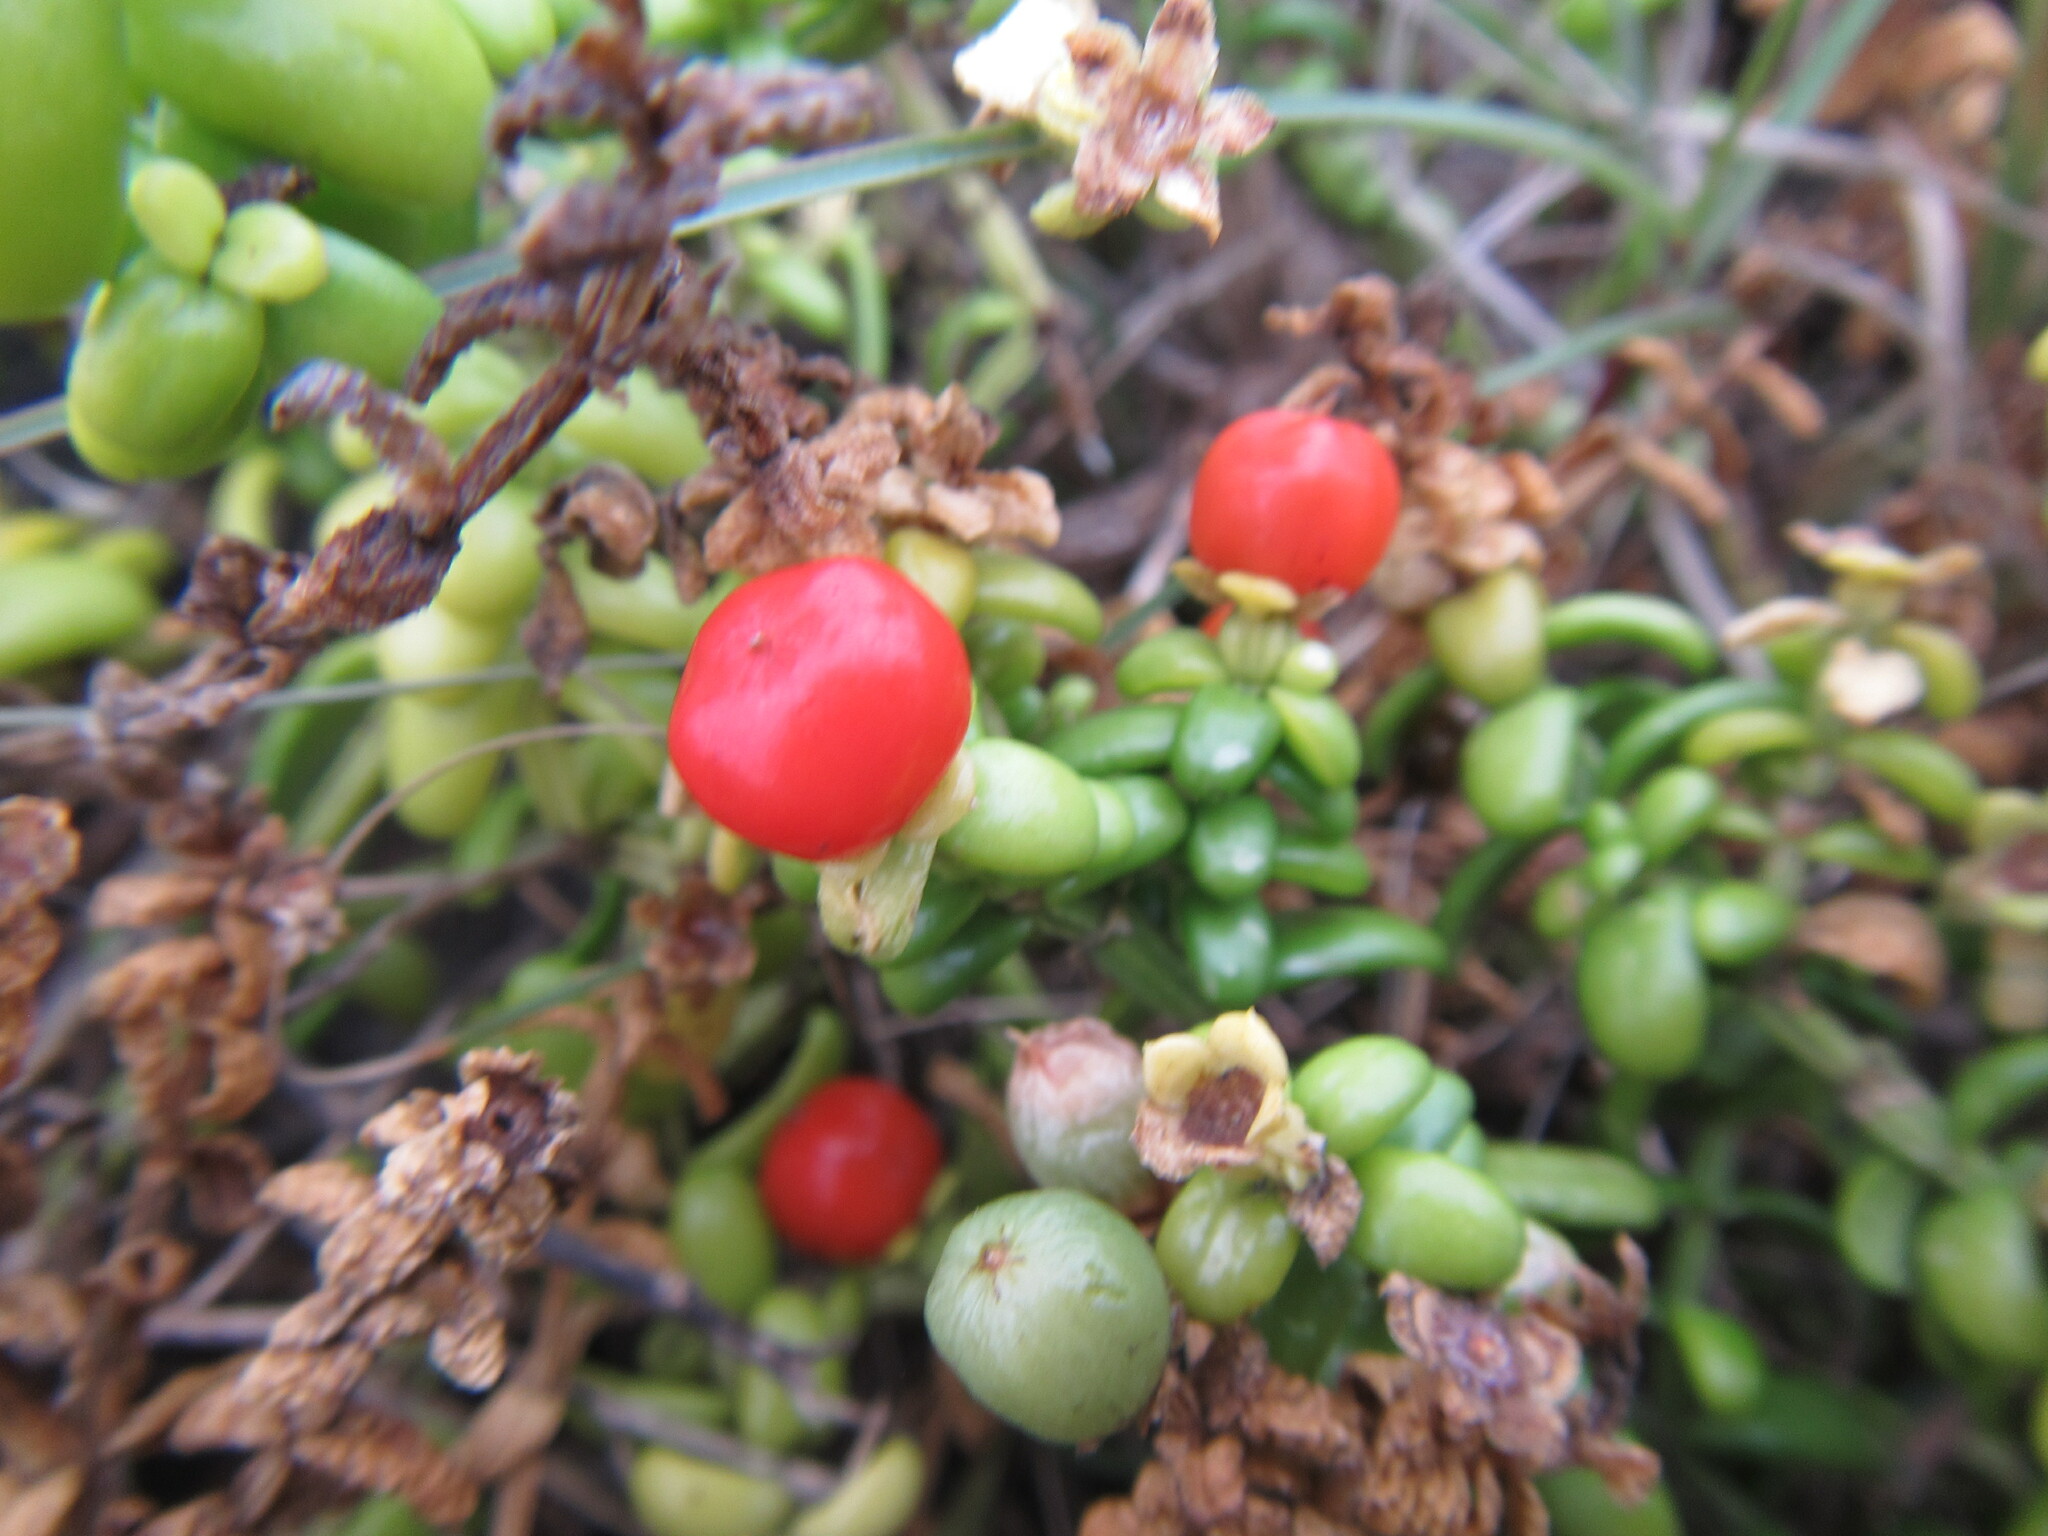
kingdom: Plantae
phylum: Tracheophyta
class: Magnoliopsida
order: Gentianales
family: Gentianaceae
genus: Chironia
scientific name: Chironia baccifera
